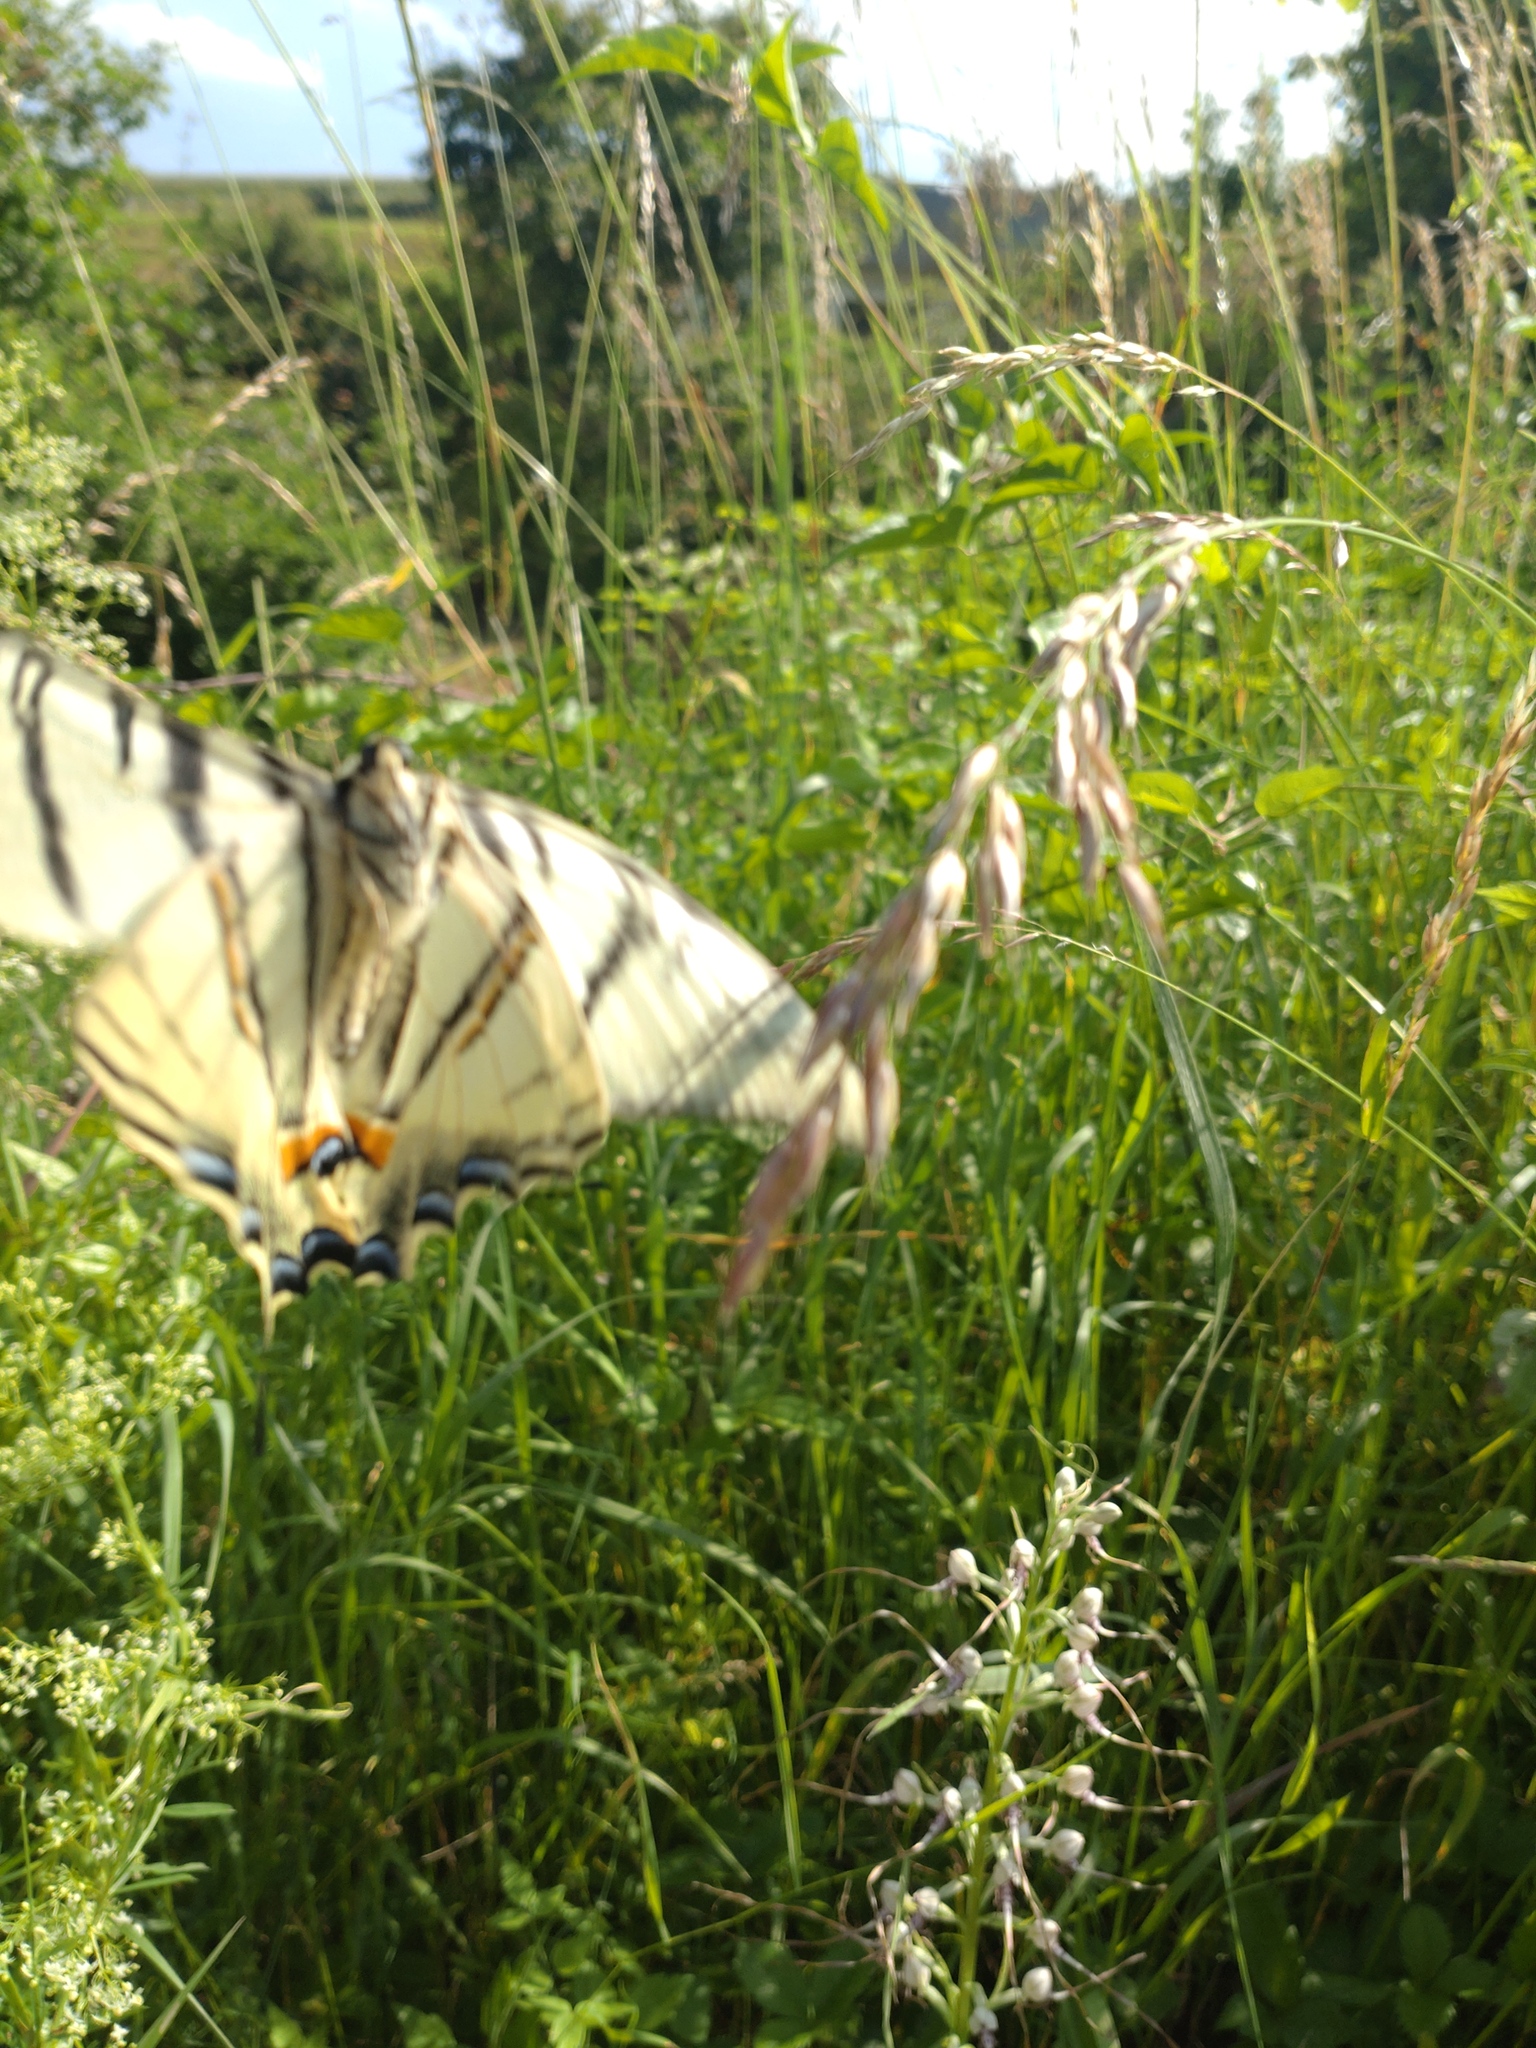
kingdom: Animalia
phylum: Arthropoda
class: Insecta
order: Lepidoptera
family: Papilionidae
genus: Iphiclides
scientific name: Iphiclides podalirius
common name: Scarce swallowtail
